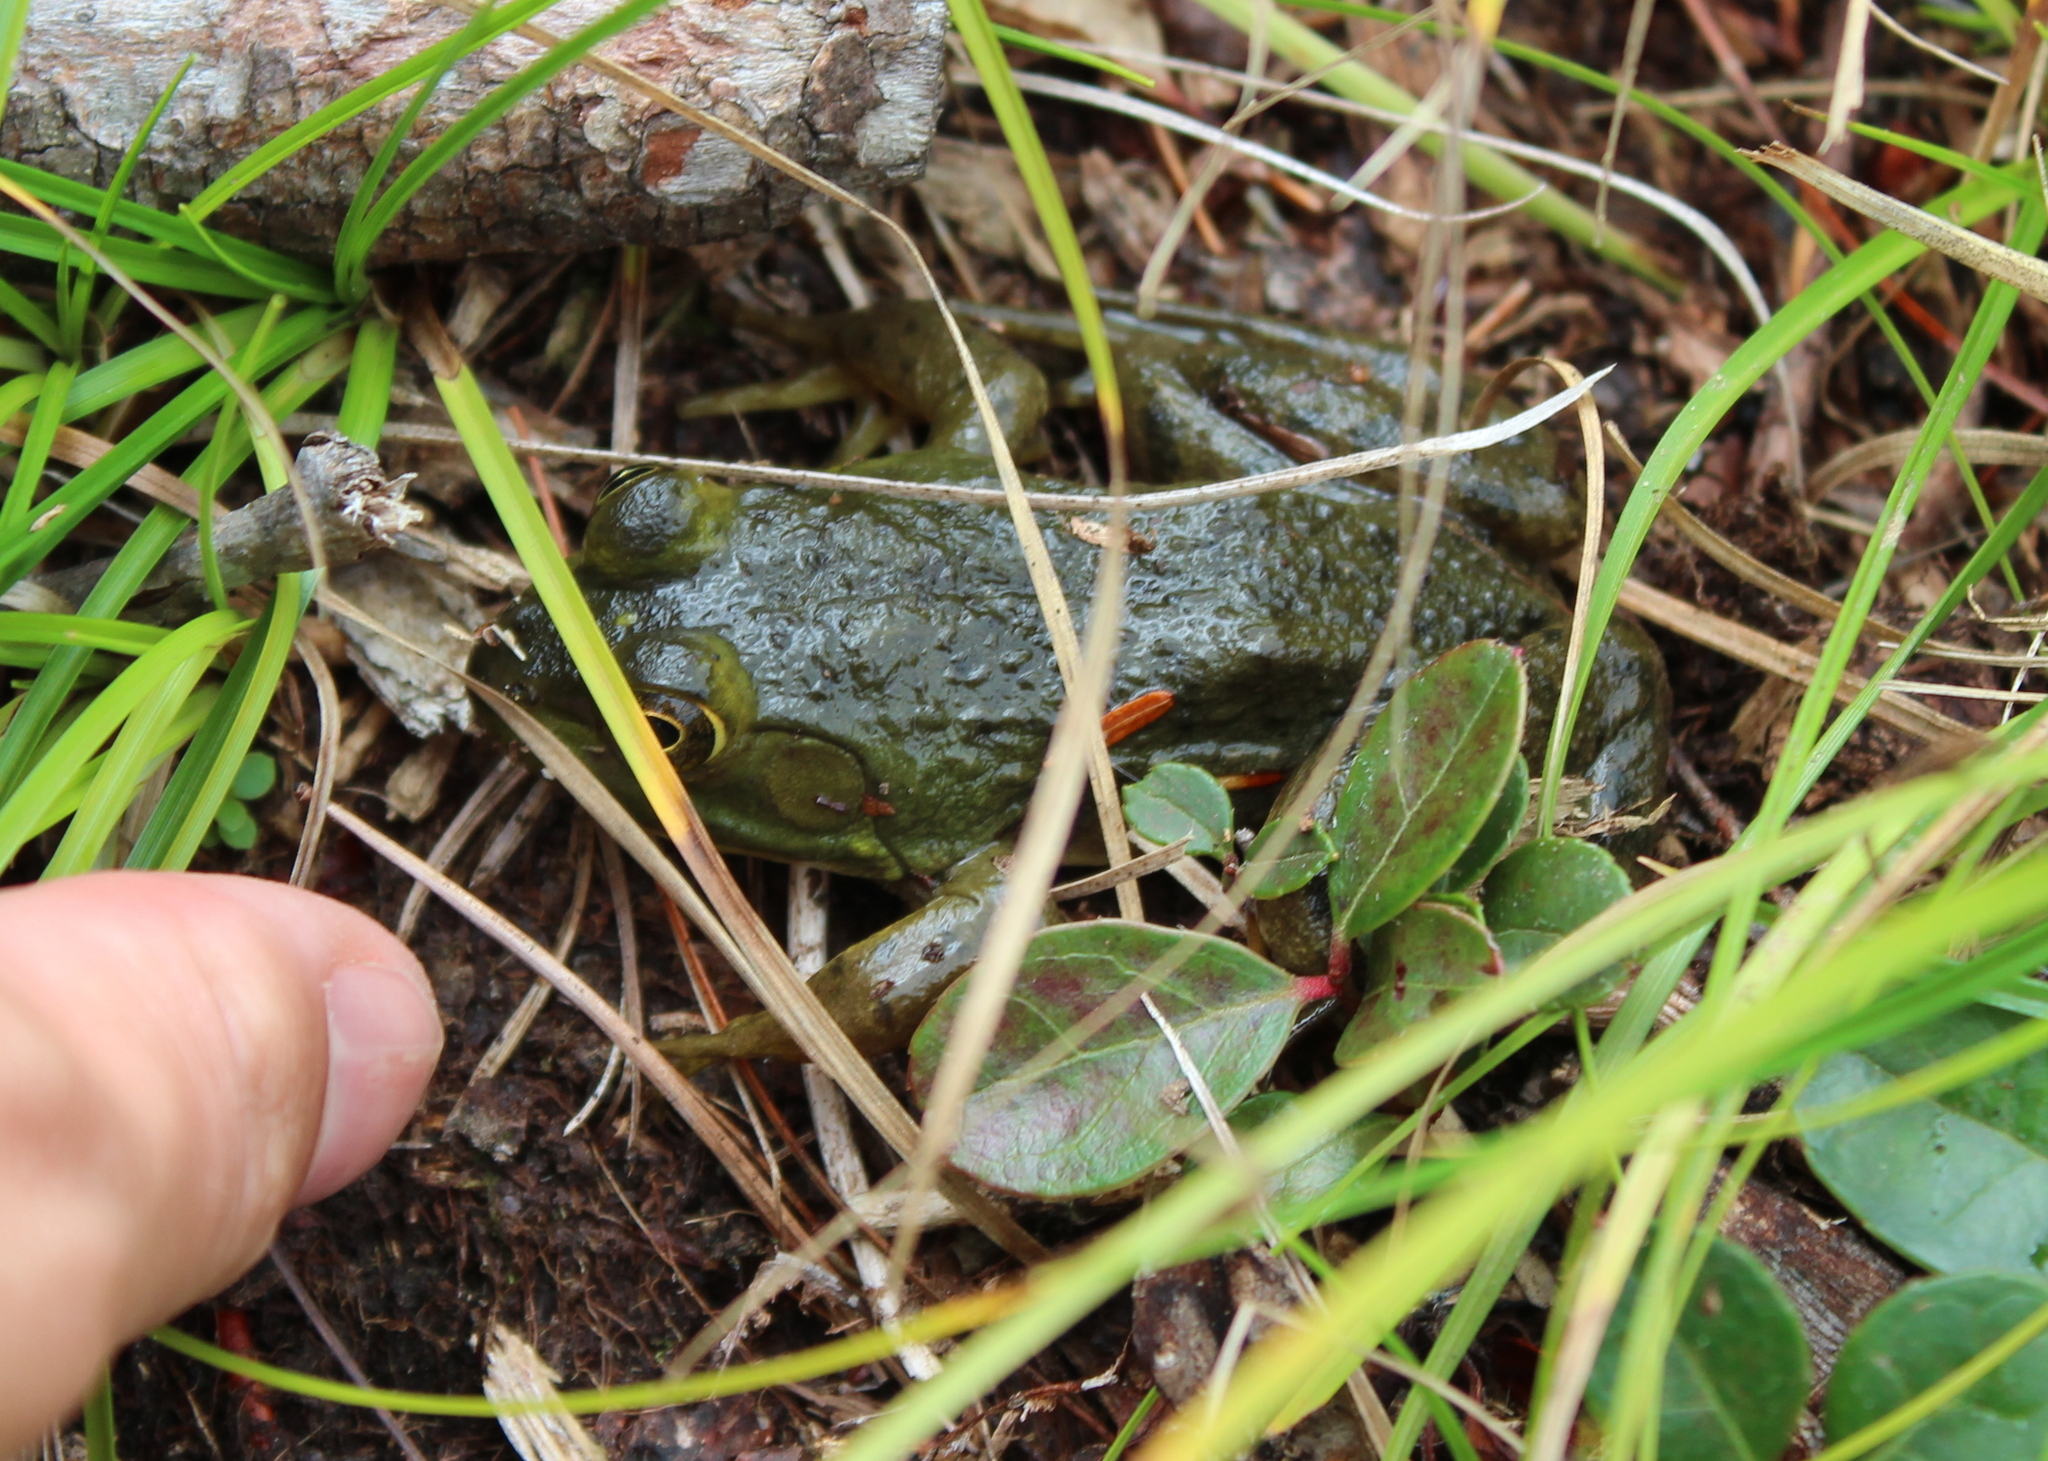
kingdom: Animalia
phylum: Chordata
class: Amphibia
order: Anura
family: Ranidae
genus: Lithobates
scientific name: Lithobates catesbeianus
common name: American bullfrog
